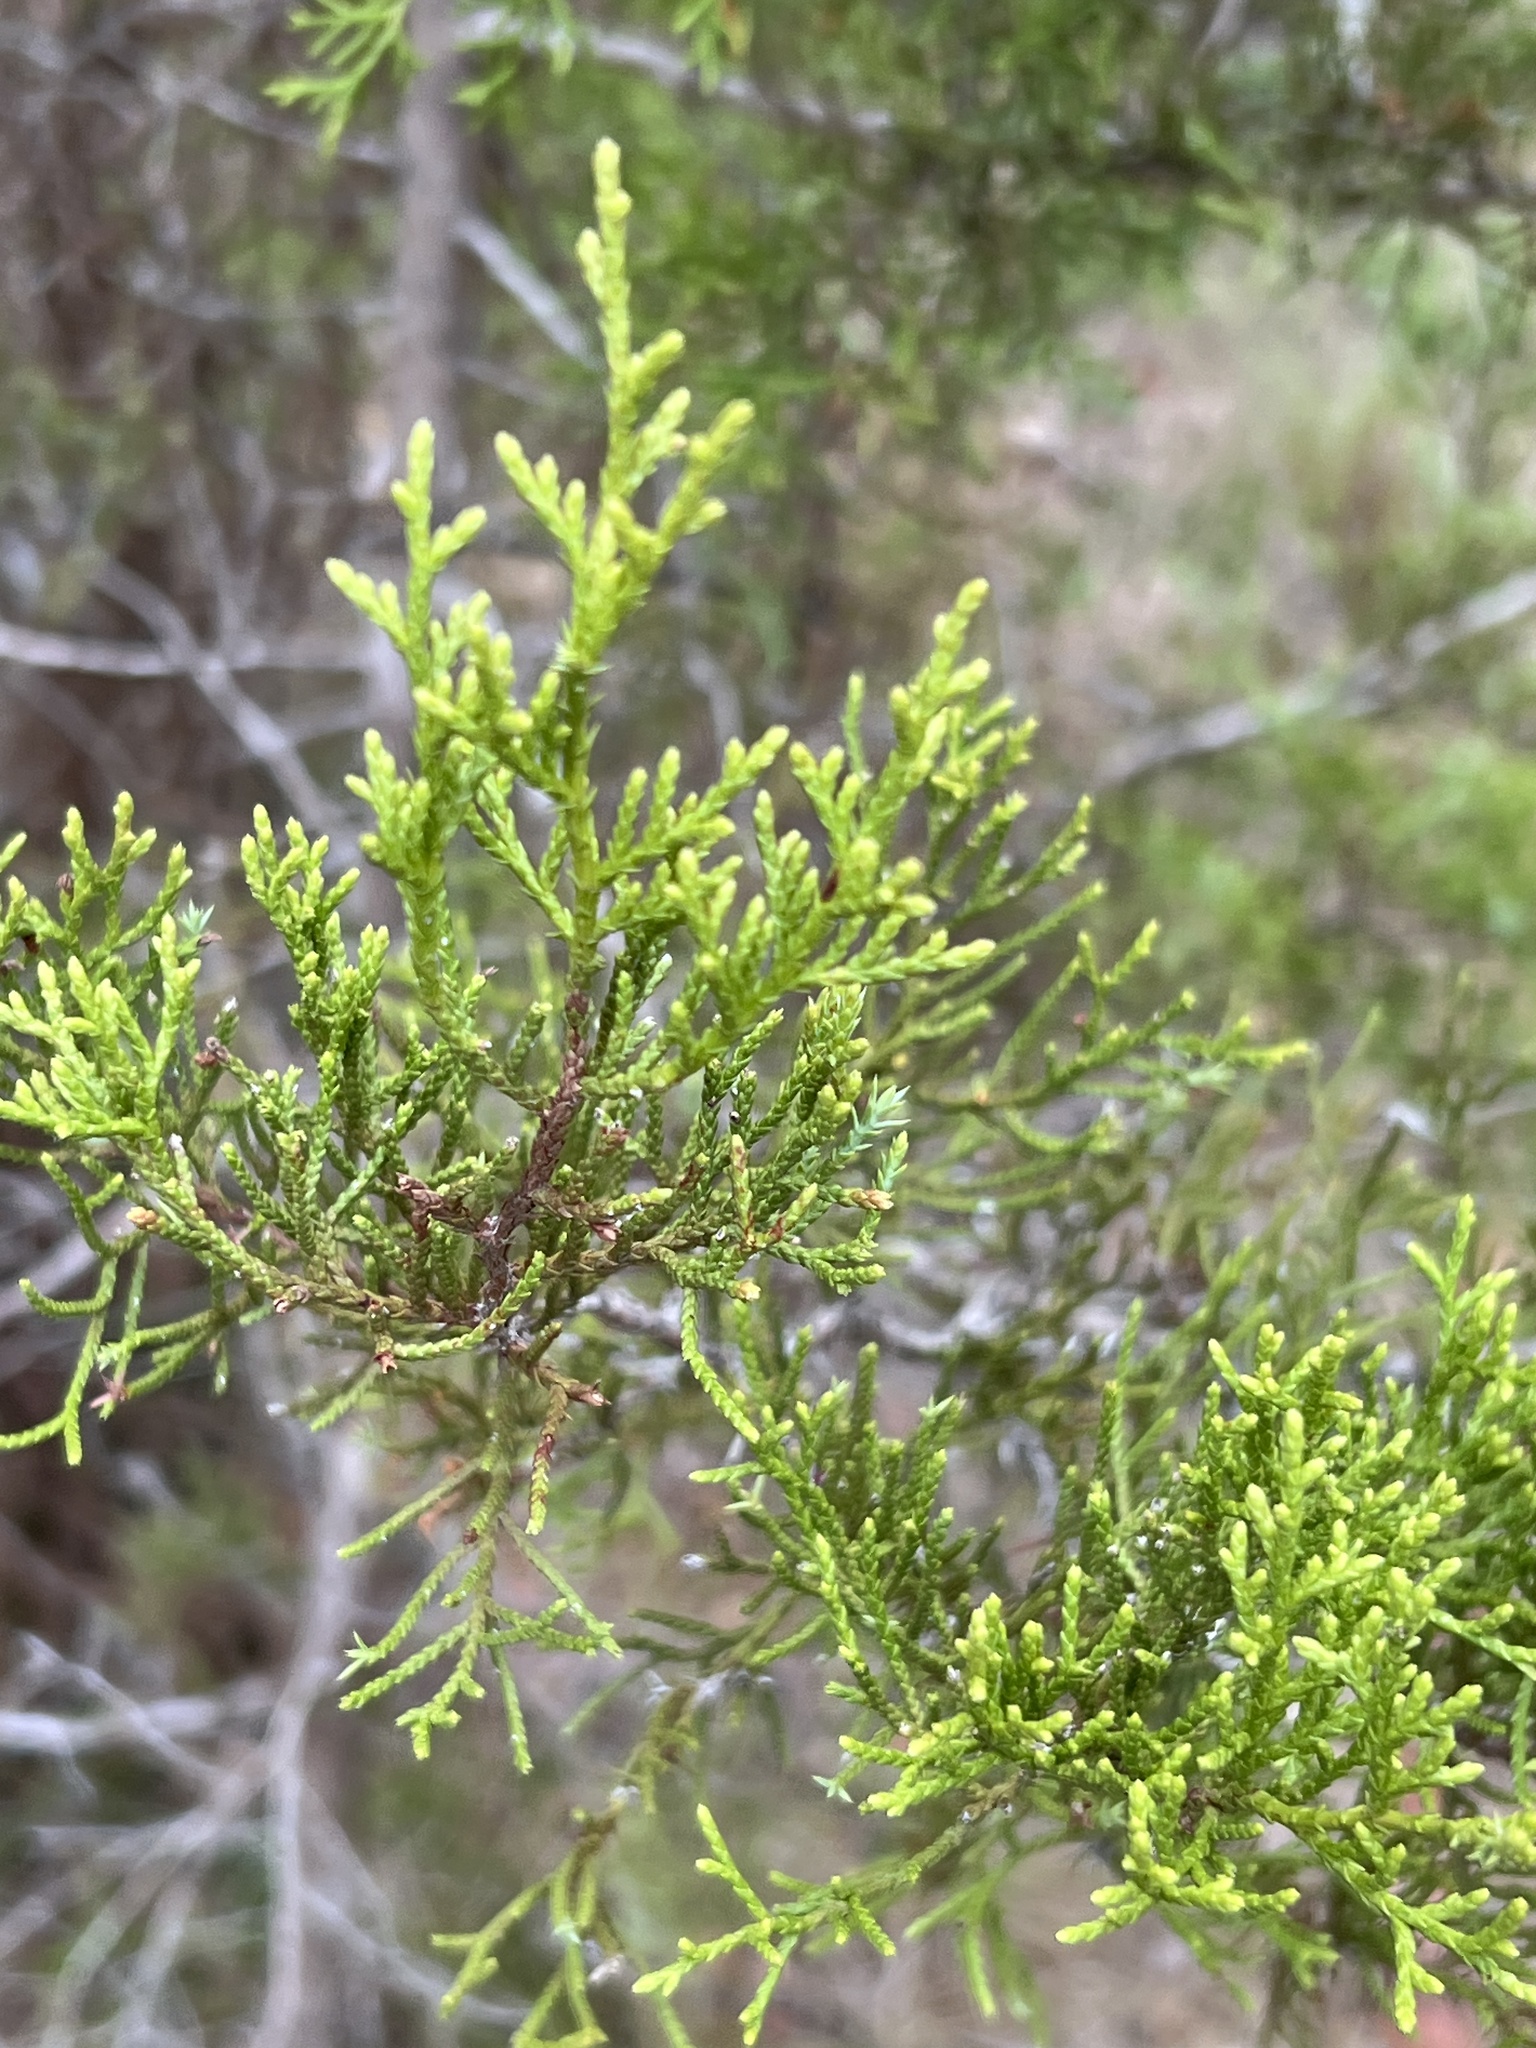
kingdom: Plantae
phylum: Tracheophyta
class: Pinopsida
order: Pinales
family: Cupressaceae
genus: Juniperus
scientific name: Juniperus ashei
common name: Mexican juniper
